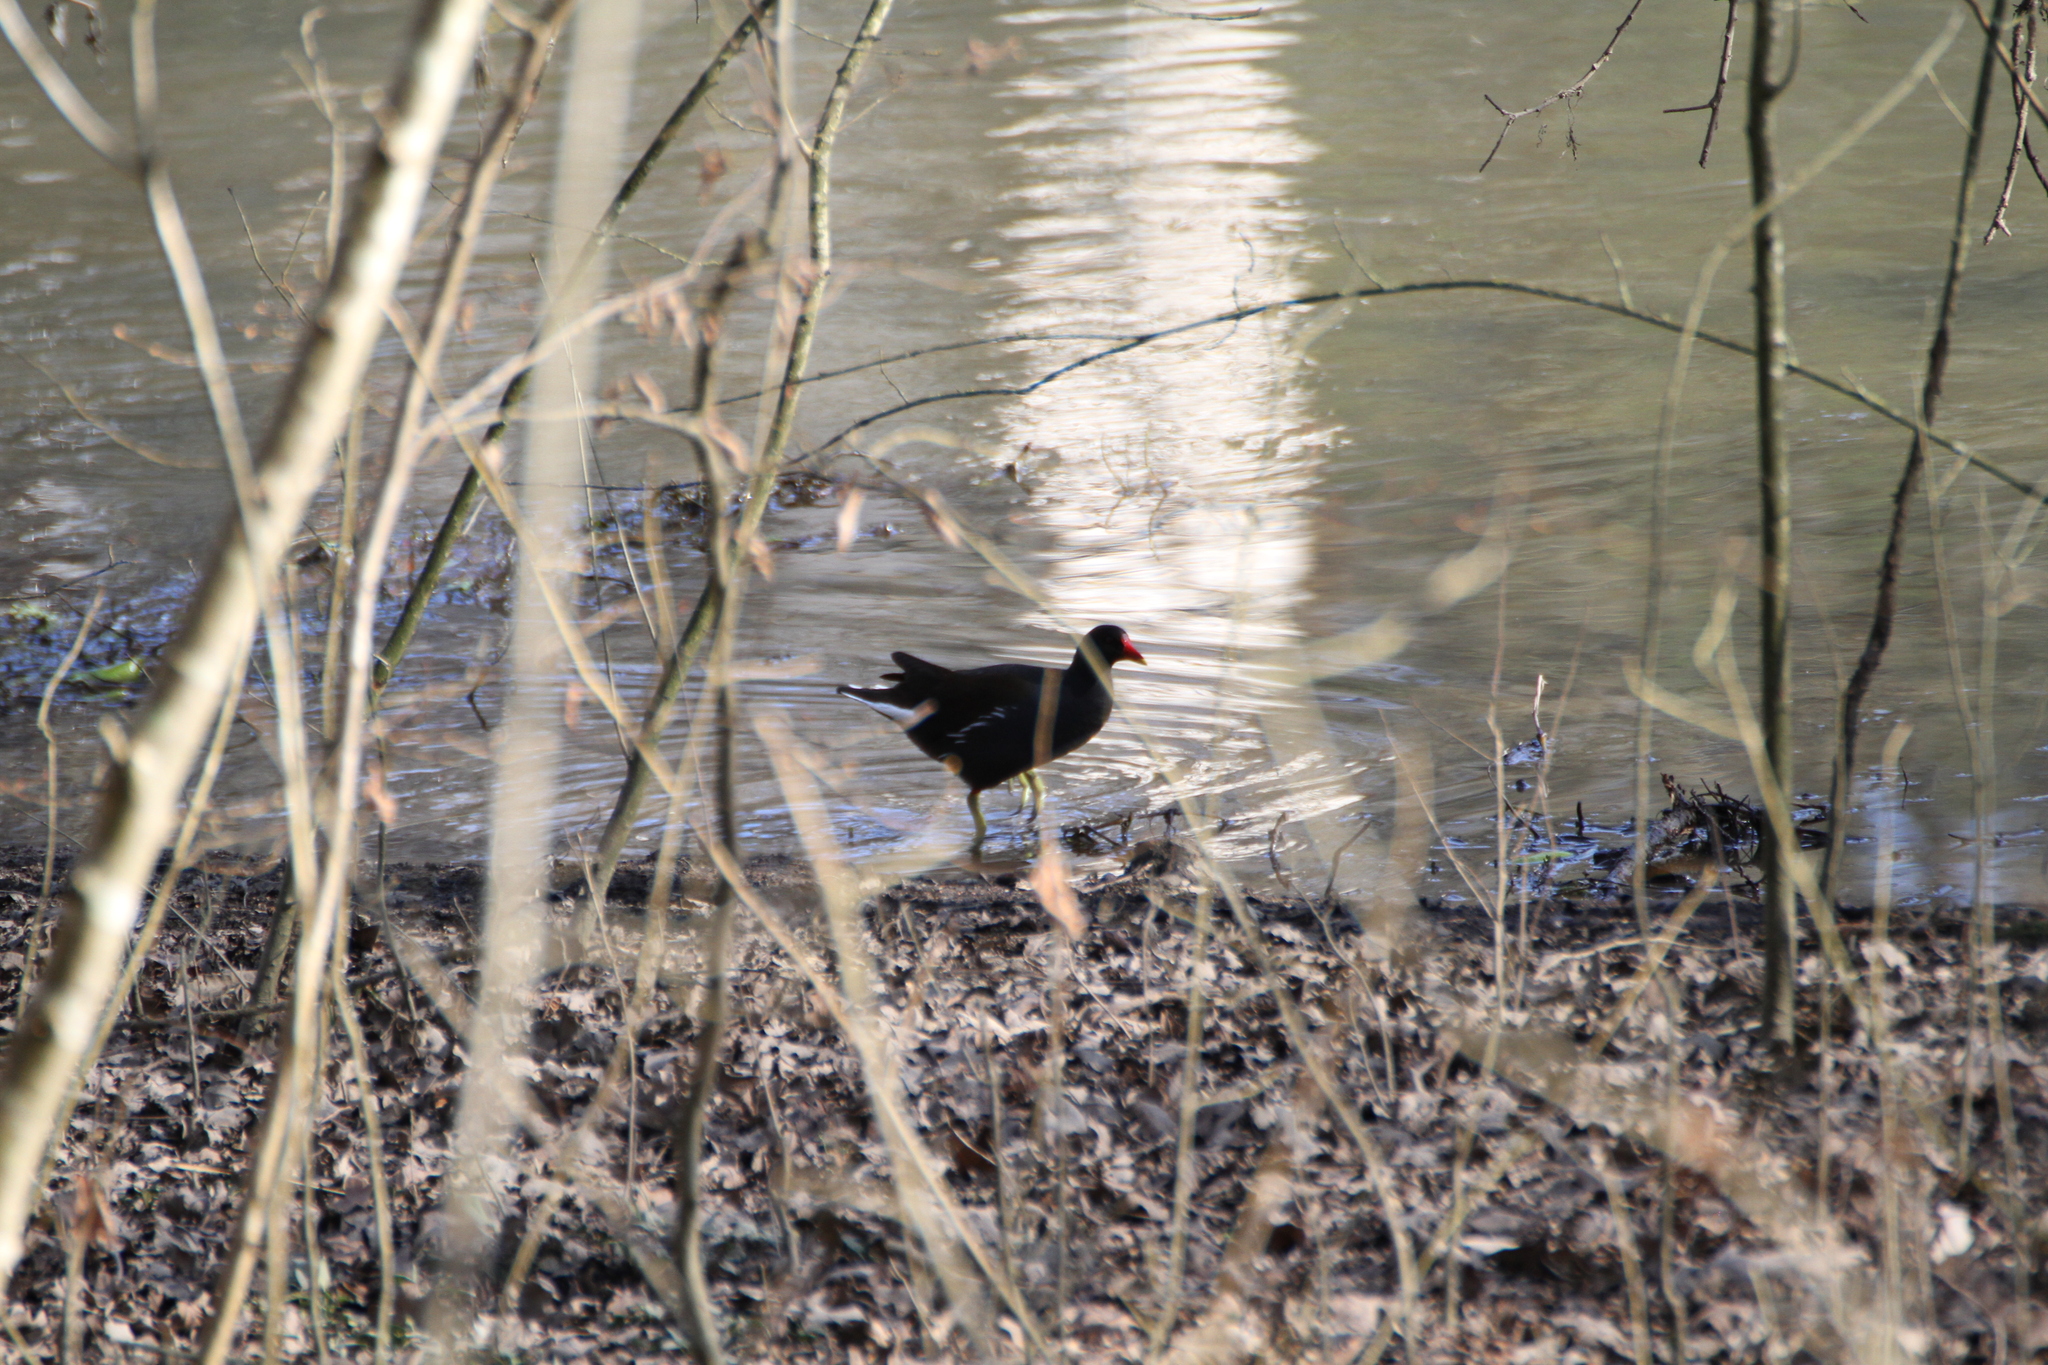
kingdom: Animalia
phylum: Chordata
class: Aves
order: Gruiformes
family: Rallidae
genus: Gallinula
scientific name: Gallinula chloropus
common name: Common moorhen
